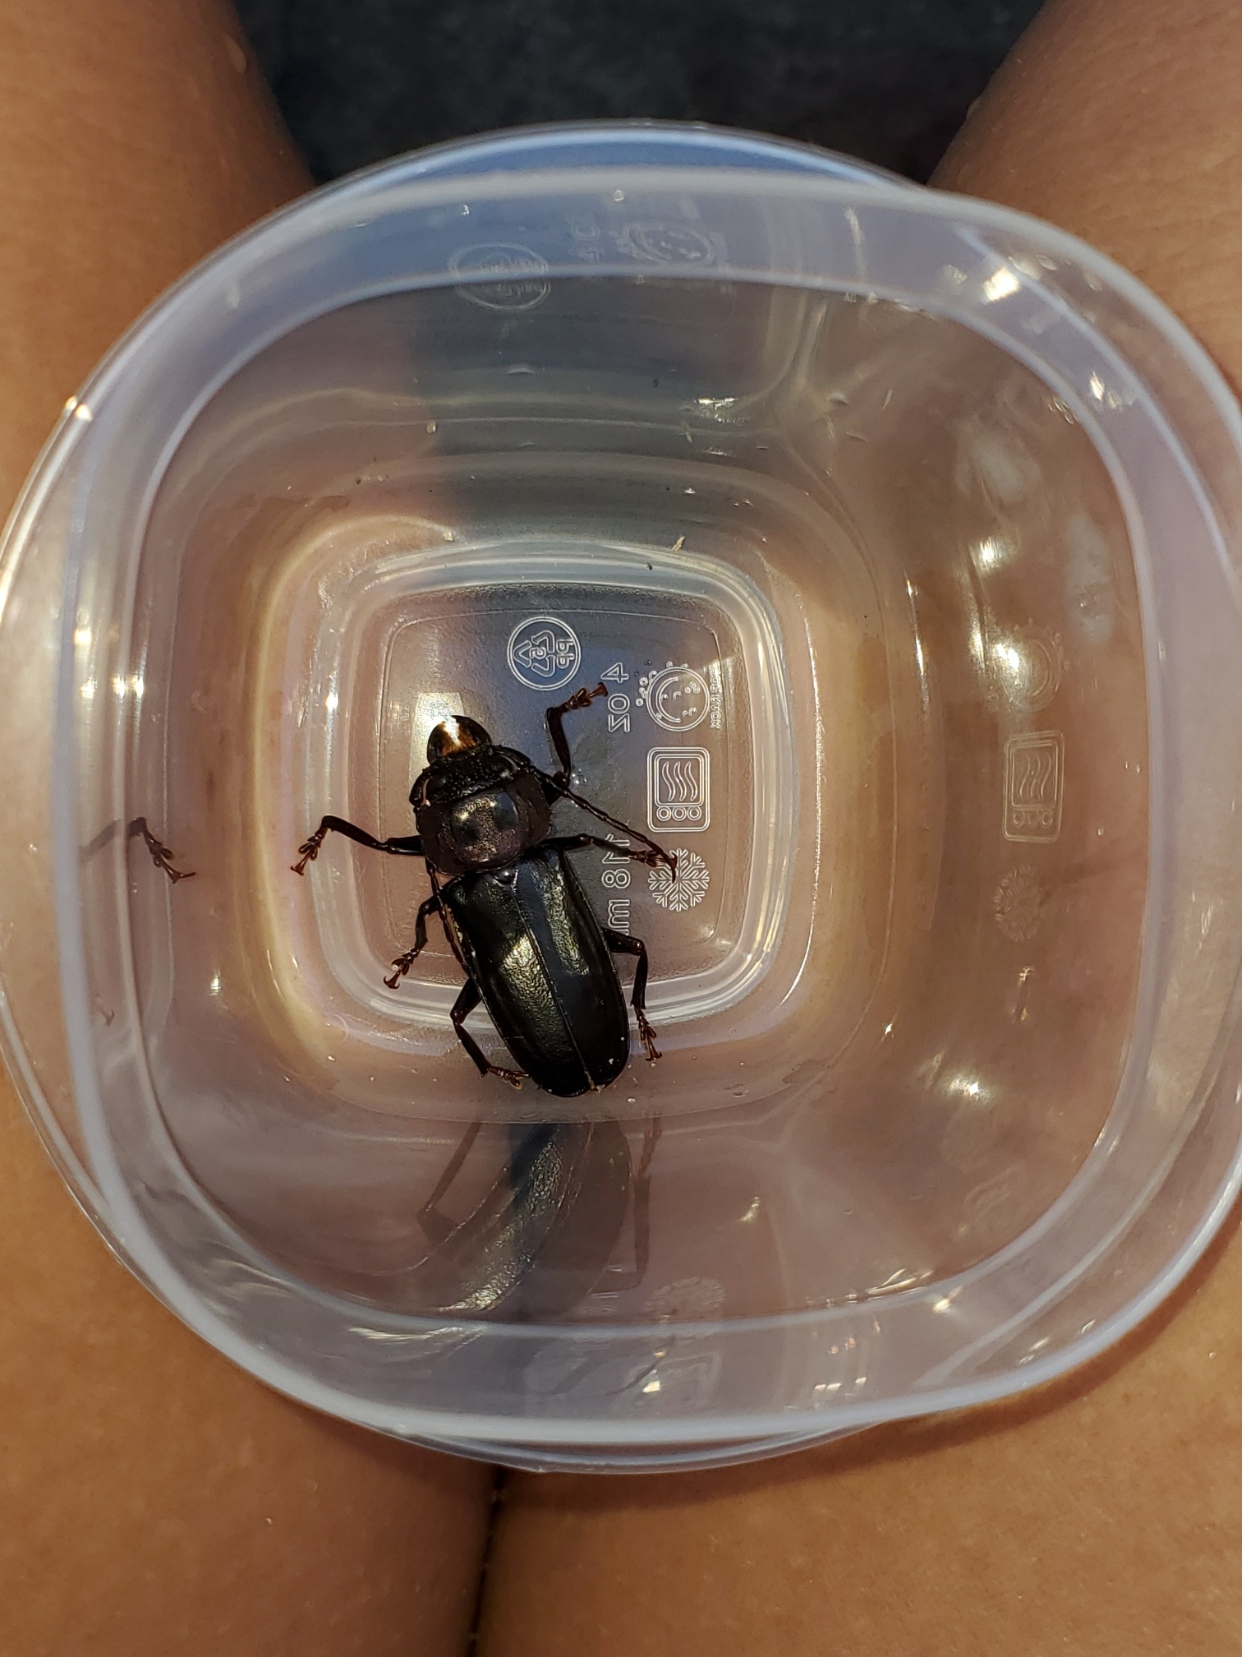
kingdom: Animalia
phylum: Arthropoda
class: Insecta
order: Coleoptera
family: Cerambycidae
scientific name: Cerambycidae
